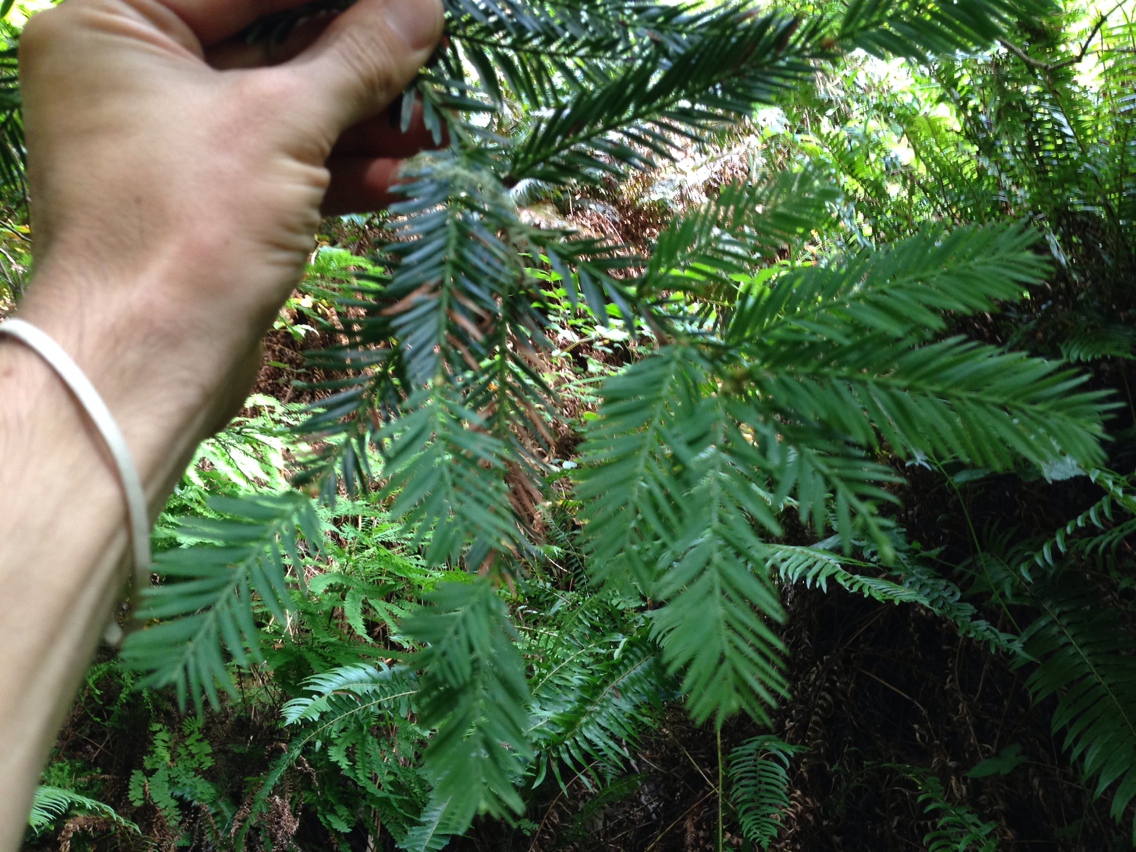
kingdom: Plantae
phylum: Tracheophyta
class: Pinopsida
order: Pinales
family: Cupressaceae
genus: Sequoia
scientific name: Sequoia sempervirens
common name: Coast redwood
